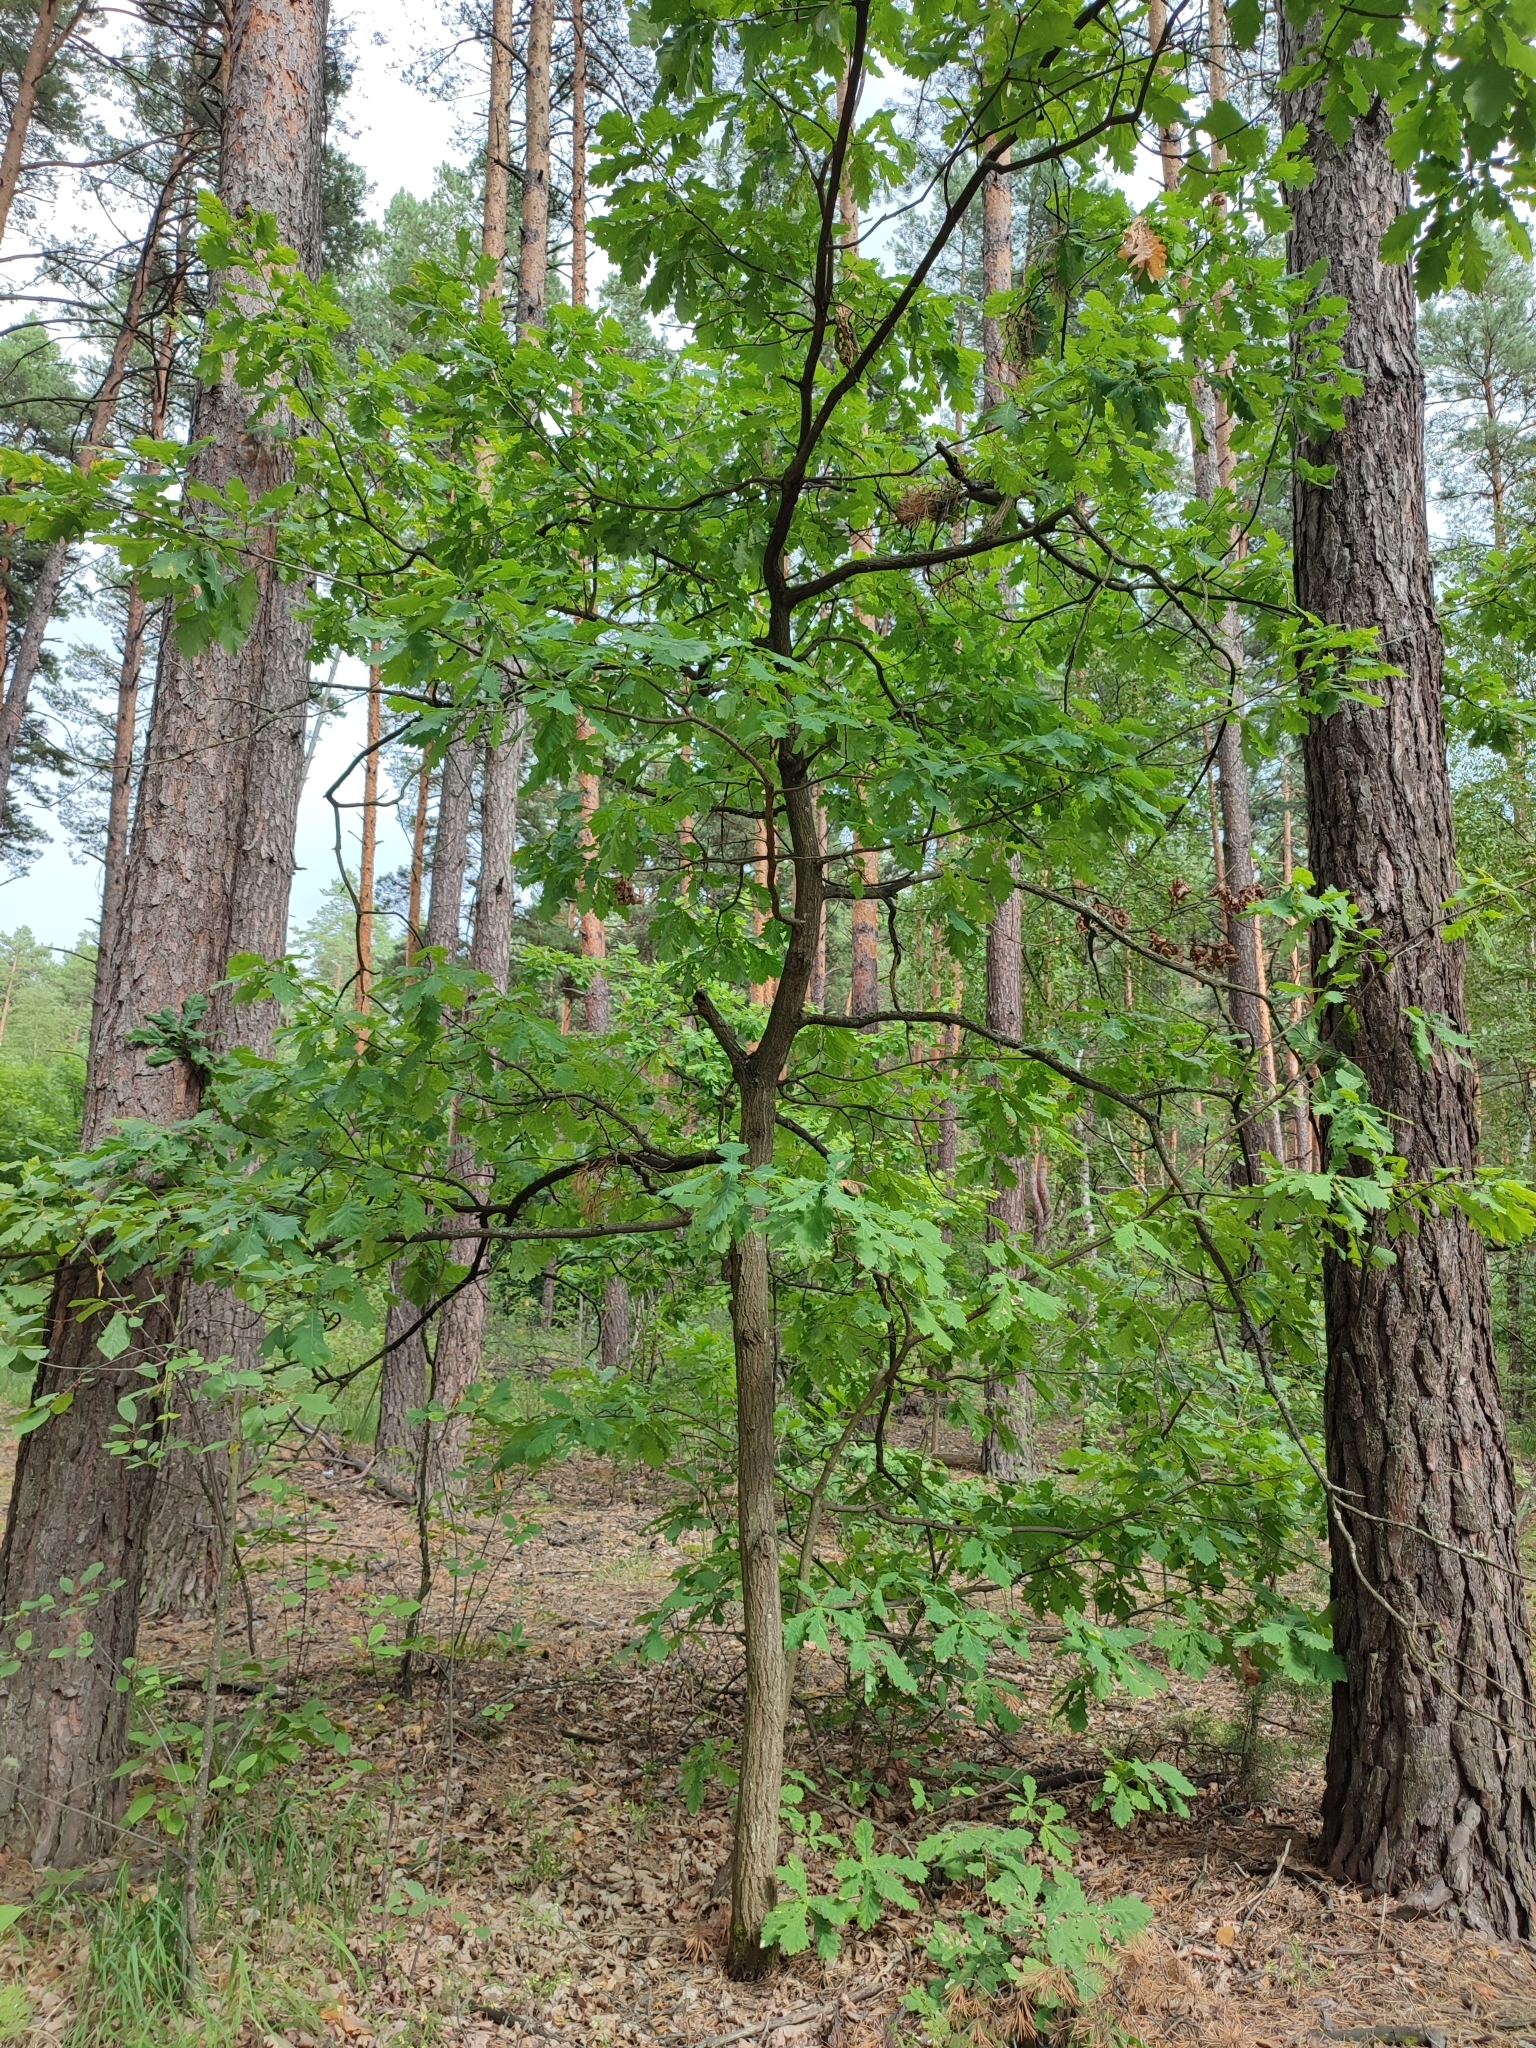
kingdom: Plantae
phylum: Tracheophyta
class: Magnoliopsida
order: Fagales
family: Fagaceae
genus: Quercus
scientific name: Quercus robur
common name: Pedunculate oak
